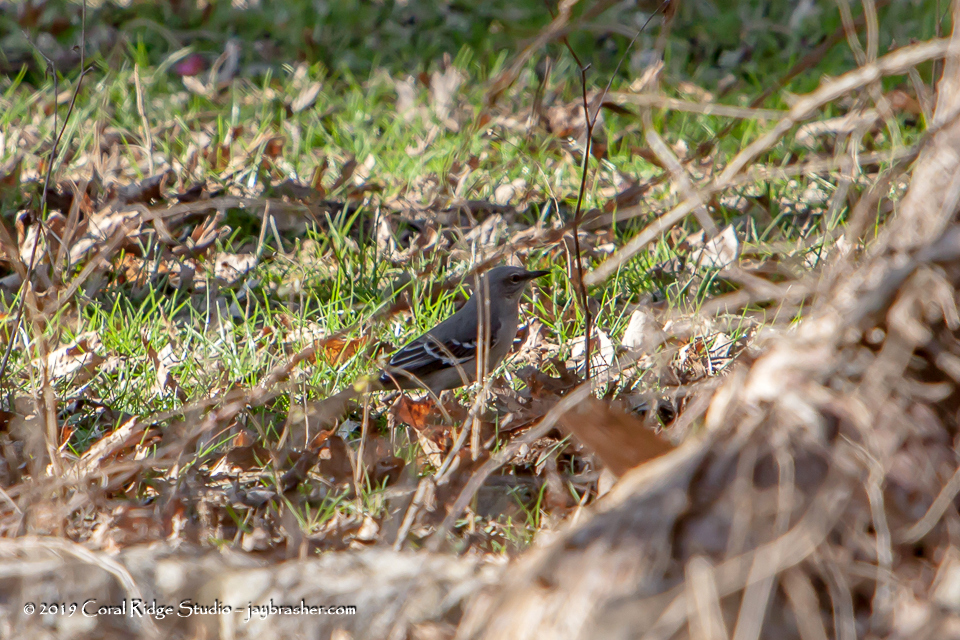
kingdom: Animalia
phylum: Chordata
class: Aves
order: Passeriformes
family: Mimidae
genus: Mimus
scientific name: Mimus polyglottos
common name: Northern mockingbird
